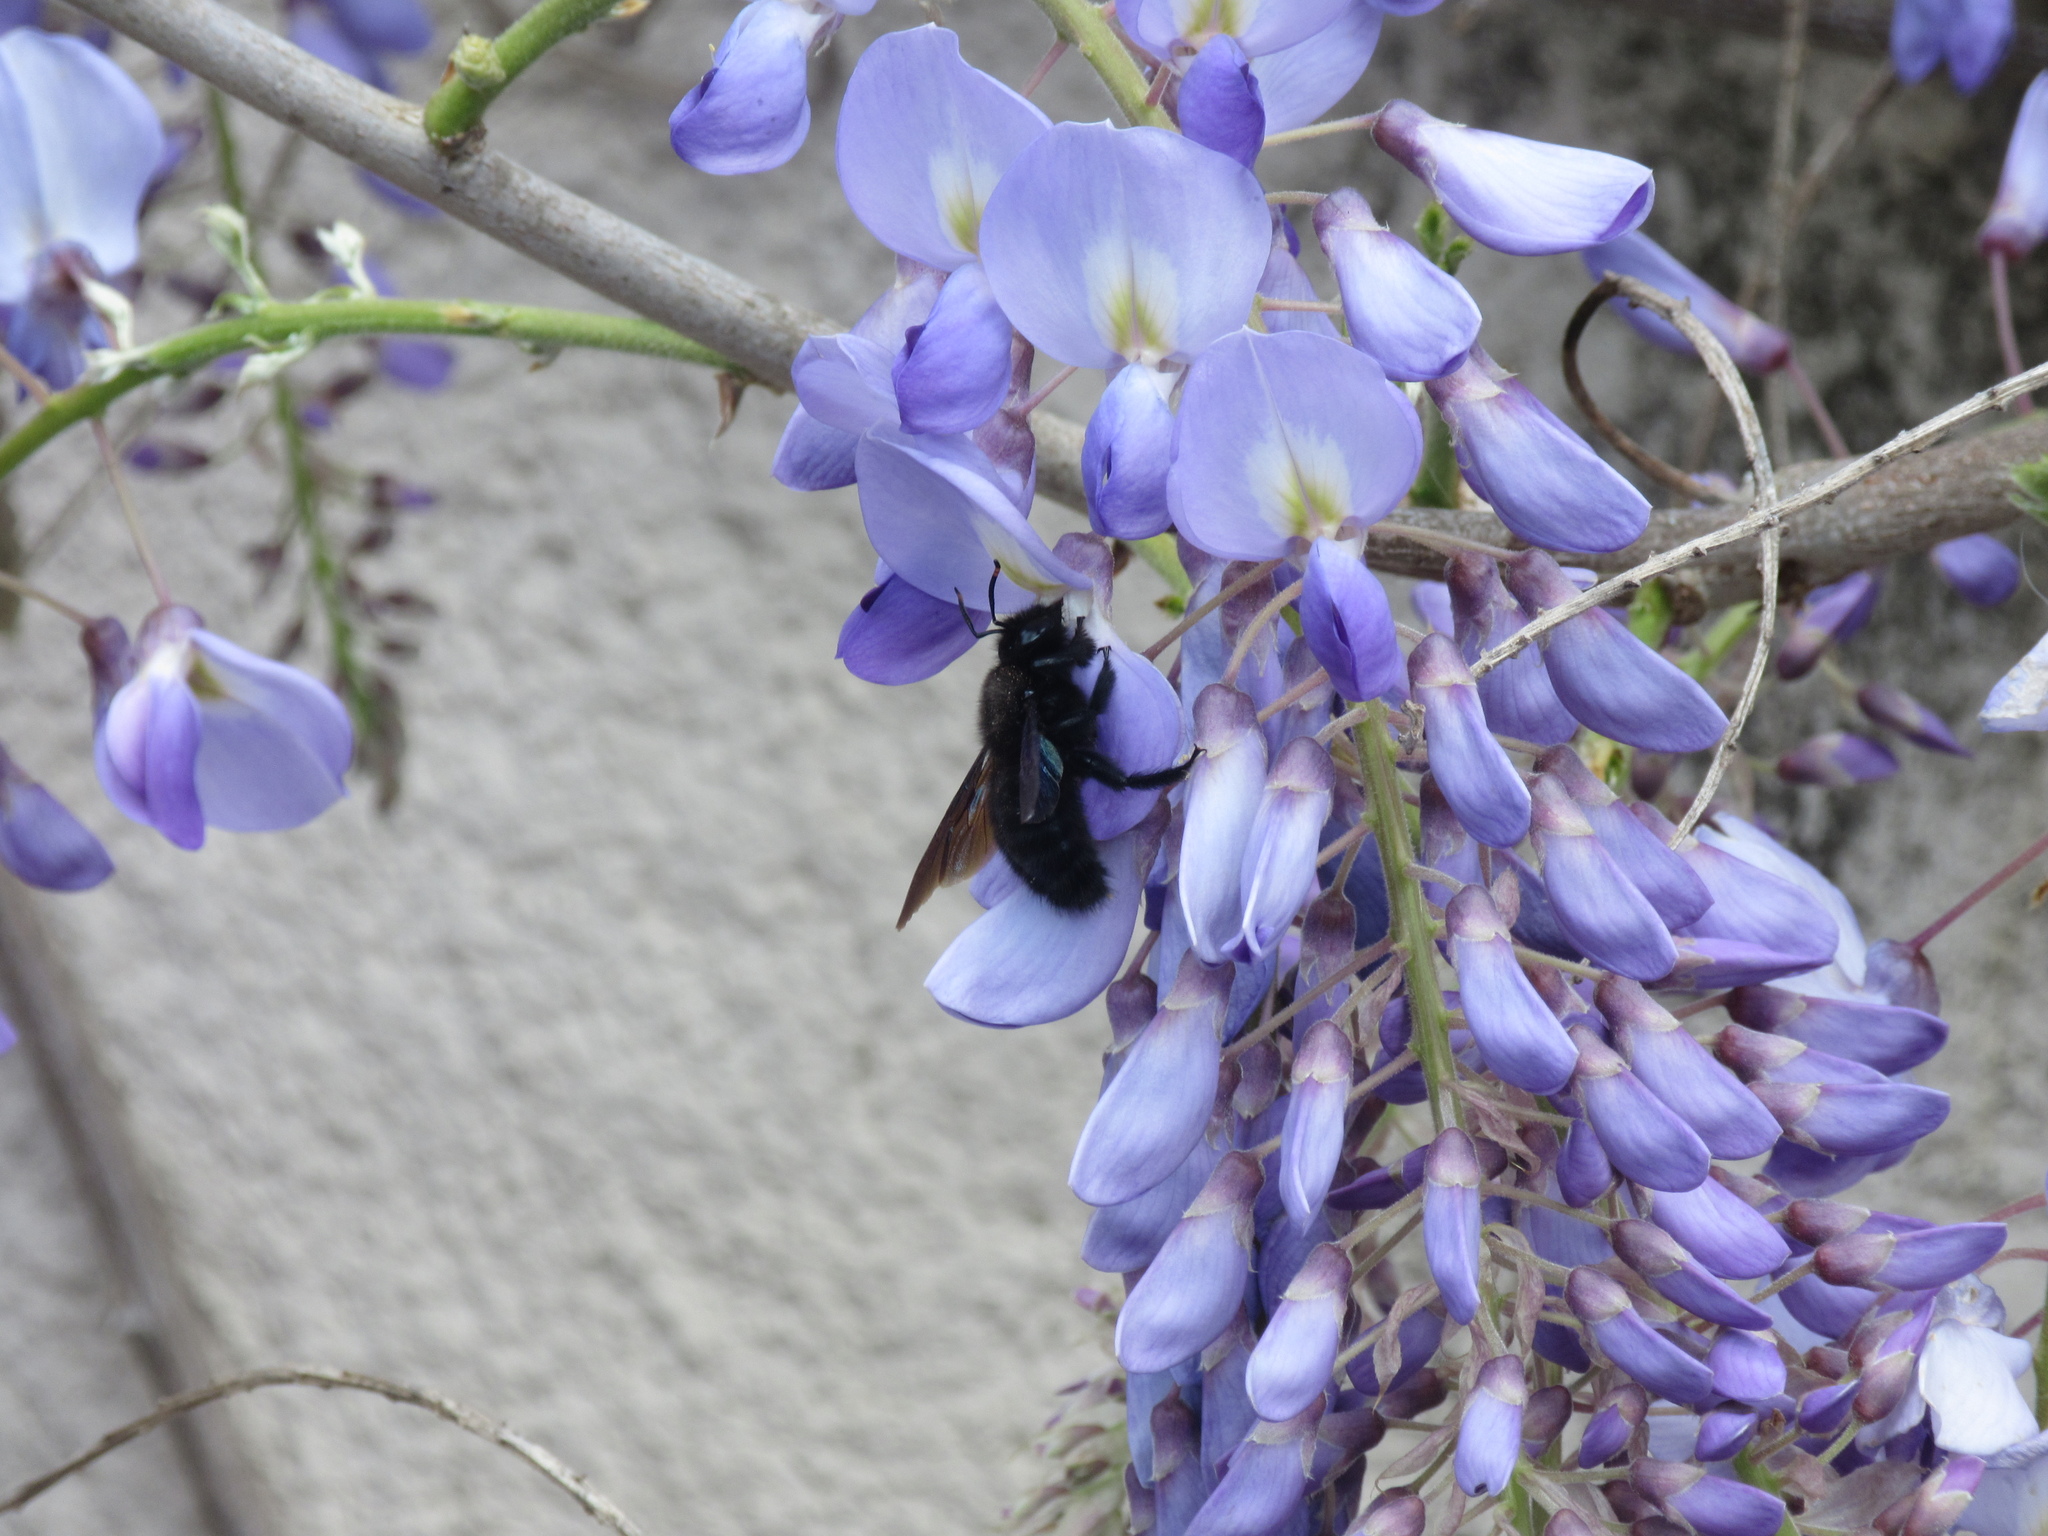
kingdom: Animalia
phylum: Arthropoda
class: Insecta
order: Hymenoptera
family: Apidae
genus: Xylocopa
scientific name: Xylocopa violacea
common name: Violet carpenter bee
